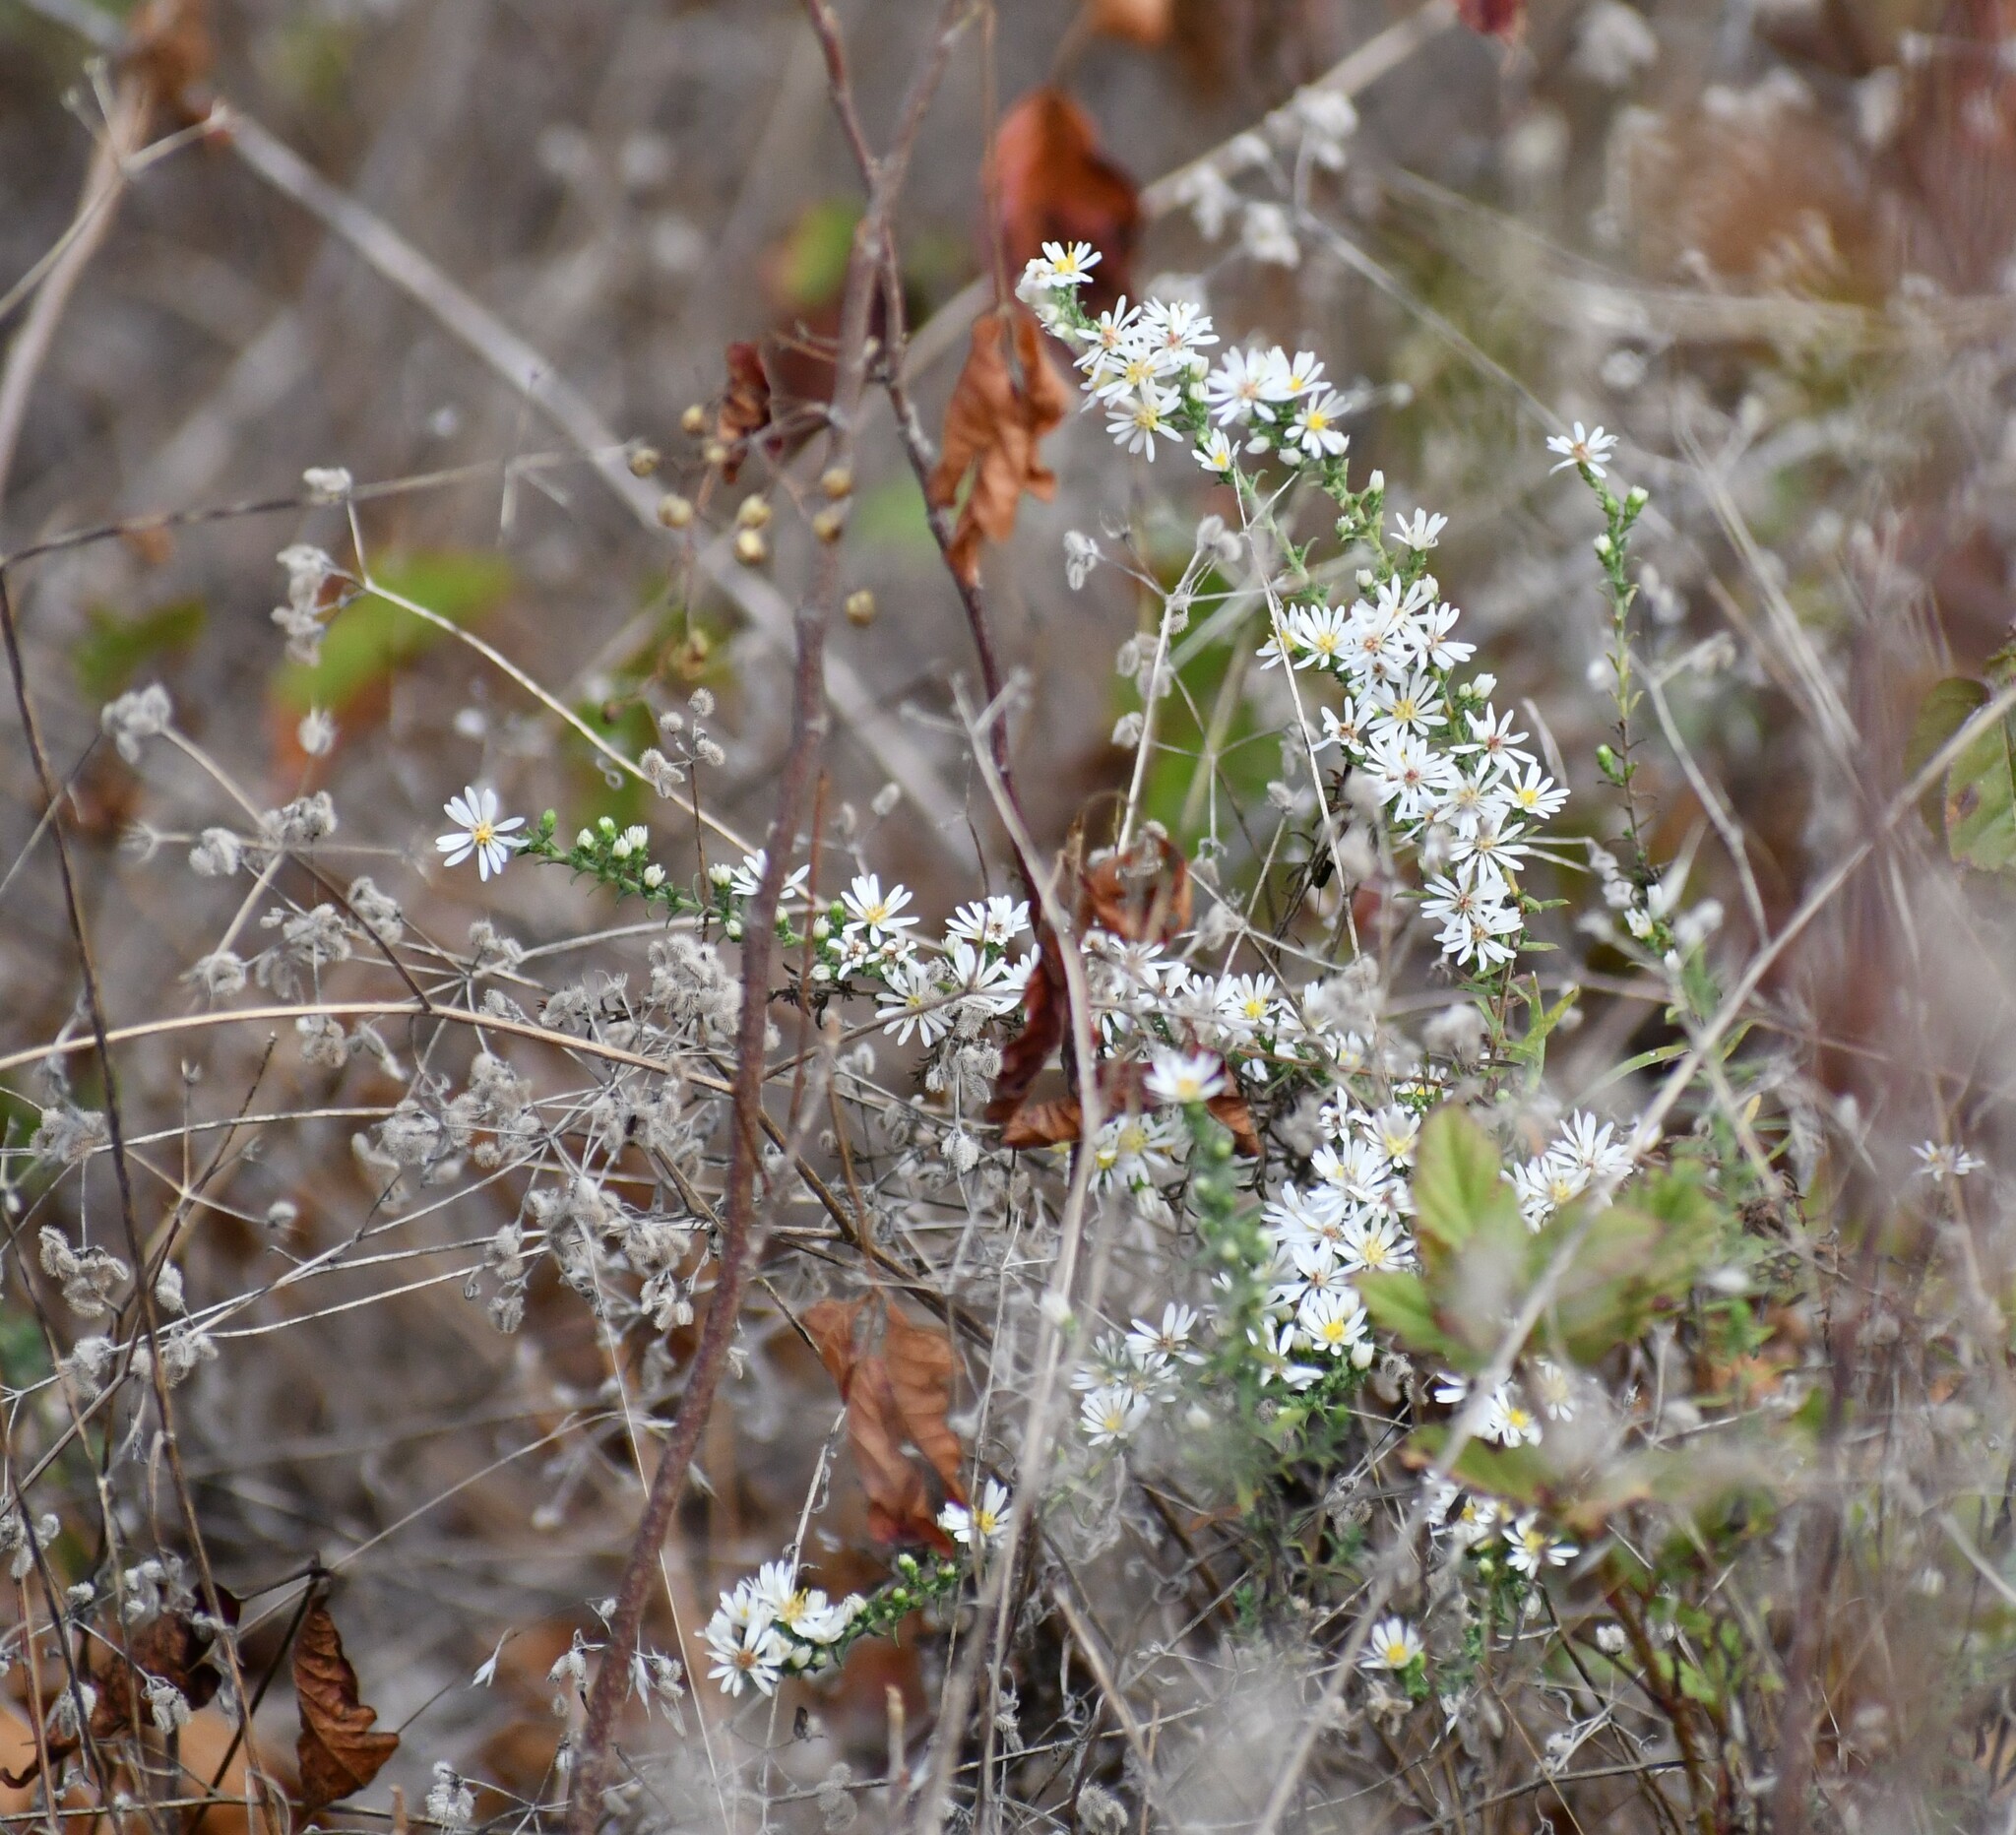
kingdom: Plantae
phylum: Tracheophyta
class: Magnoliopsida
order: Asterales
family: Asteraceae
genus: Symphyotrichum
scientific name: Symphyotrichum ericoides
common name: Heath aster
